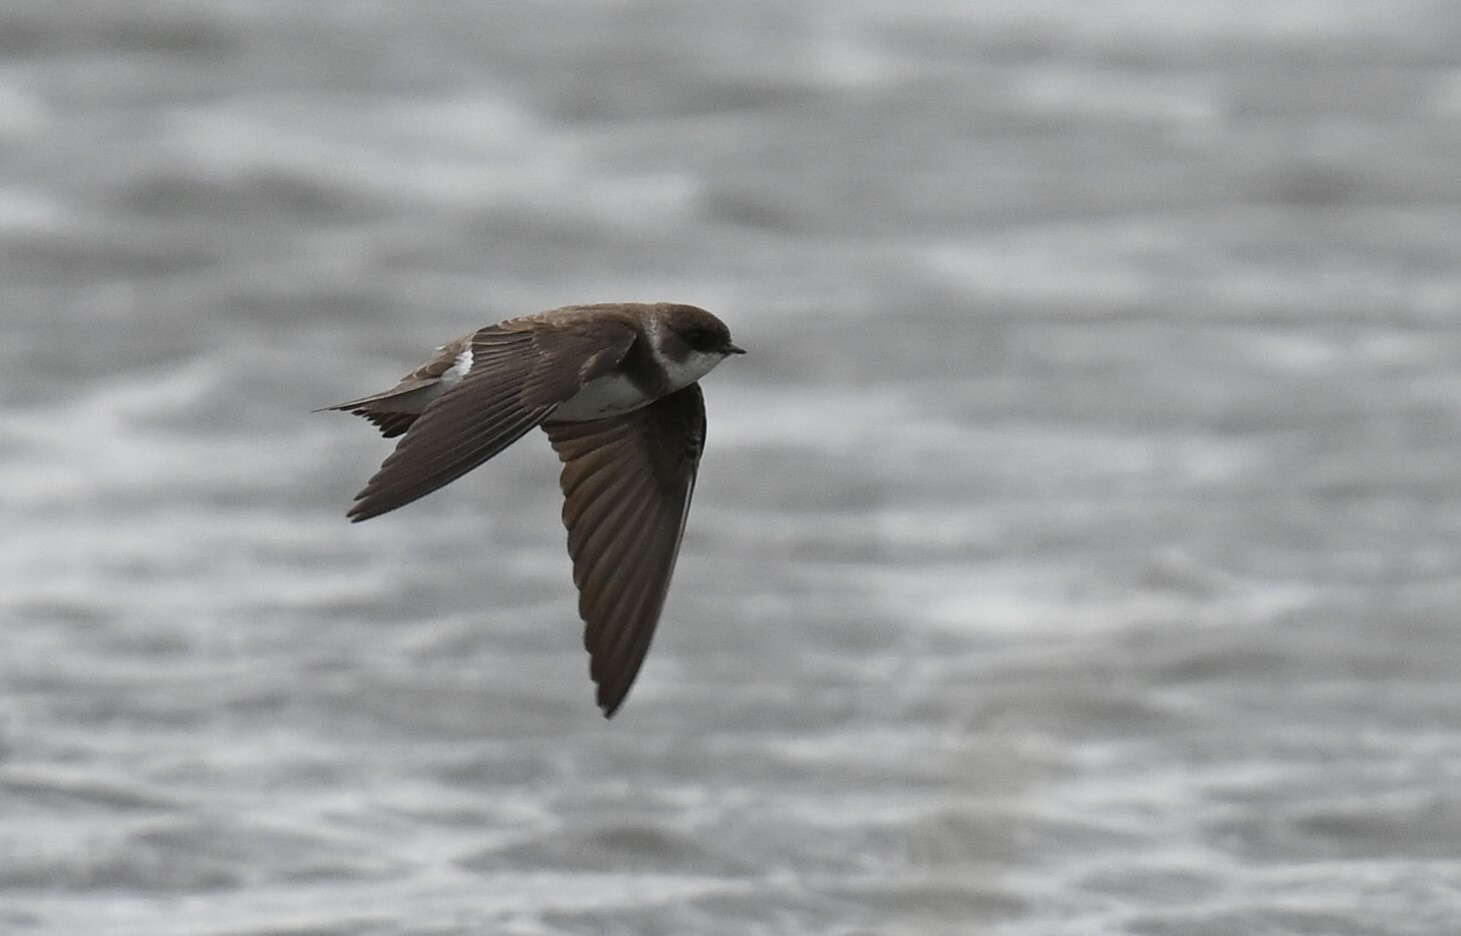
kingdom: Animalia
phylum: Chordata
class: Aves
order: Passeriformes
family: Hirundinidae
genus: Riparia
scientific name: Riparia riparia
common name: Sand martin
